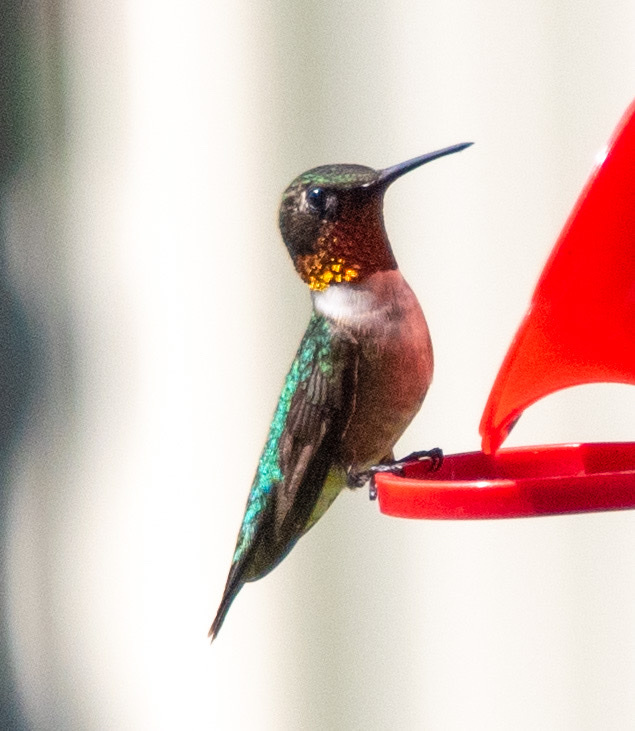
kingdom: Animalia
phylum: Chordata
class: Aves
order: Apodiformes
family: Trochilidae
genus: Archilochus
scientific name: Archilochus colubris
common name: Ruby-throated hummingbird
